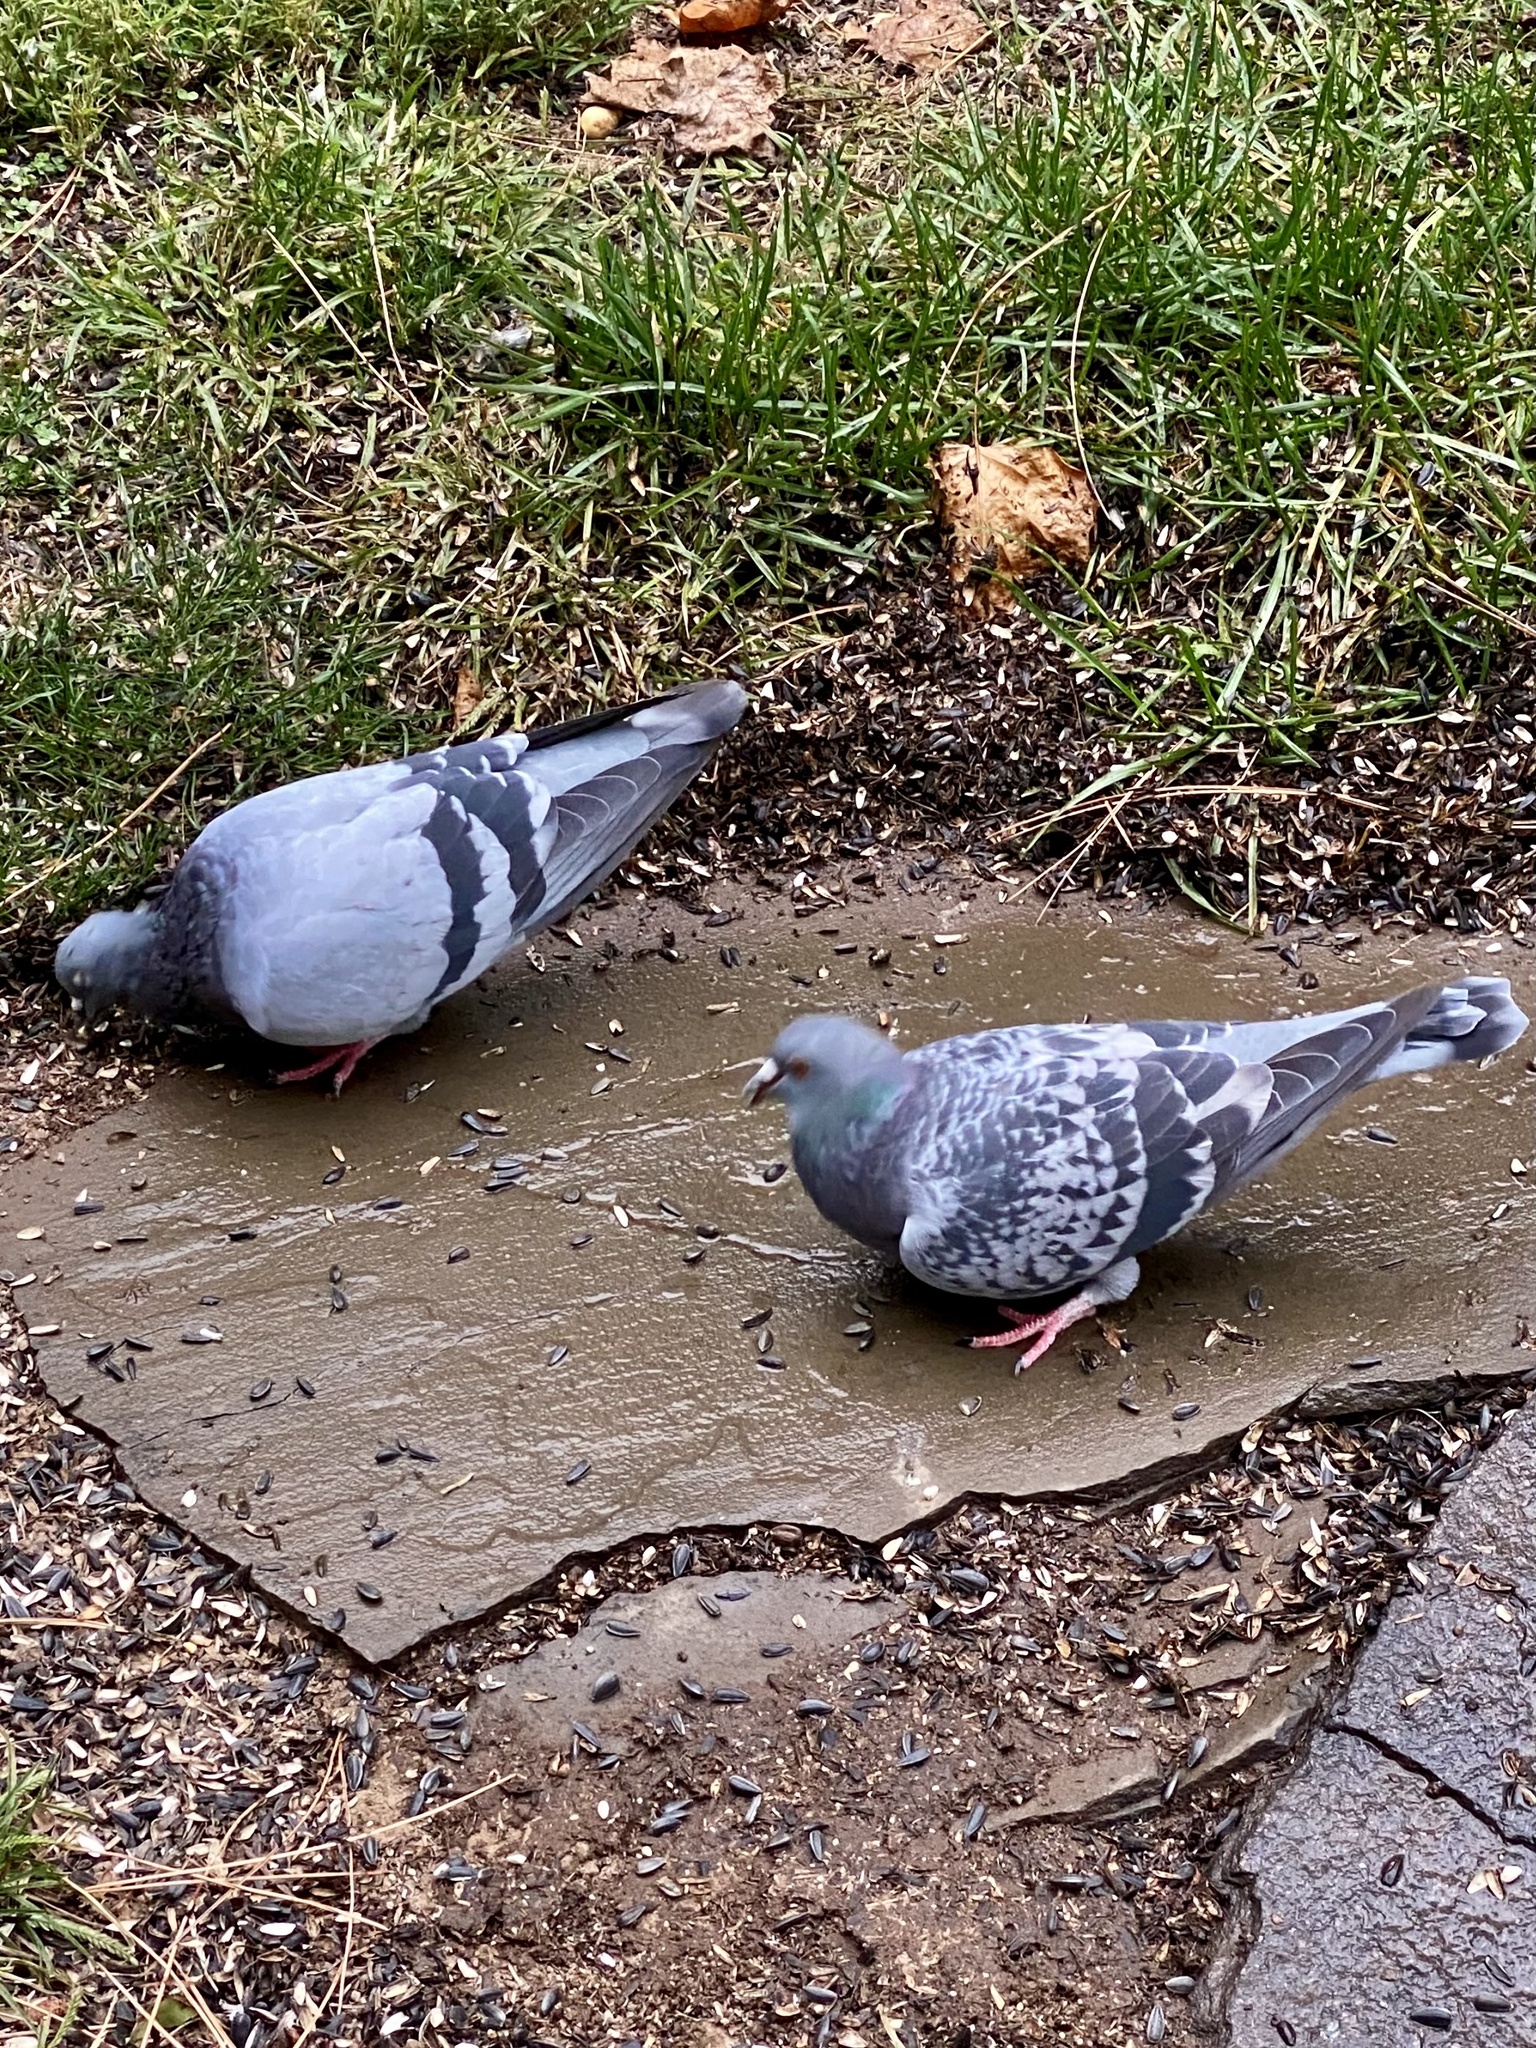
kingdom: Animalia
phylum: Chordata
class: Aves
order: Columbiformes
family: Columbidae
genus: Columba
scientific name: Columba livia
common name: Rock pigeon
